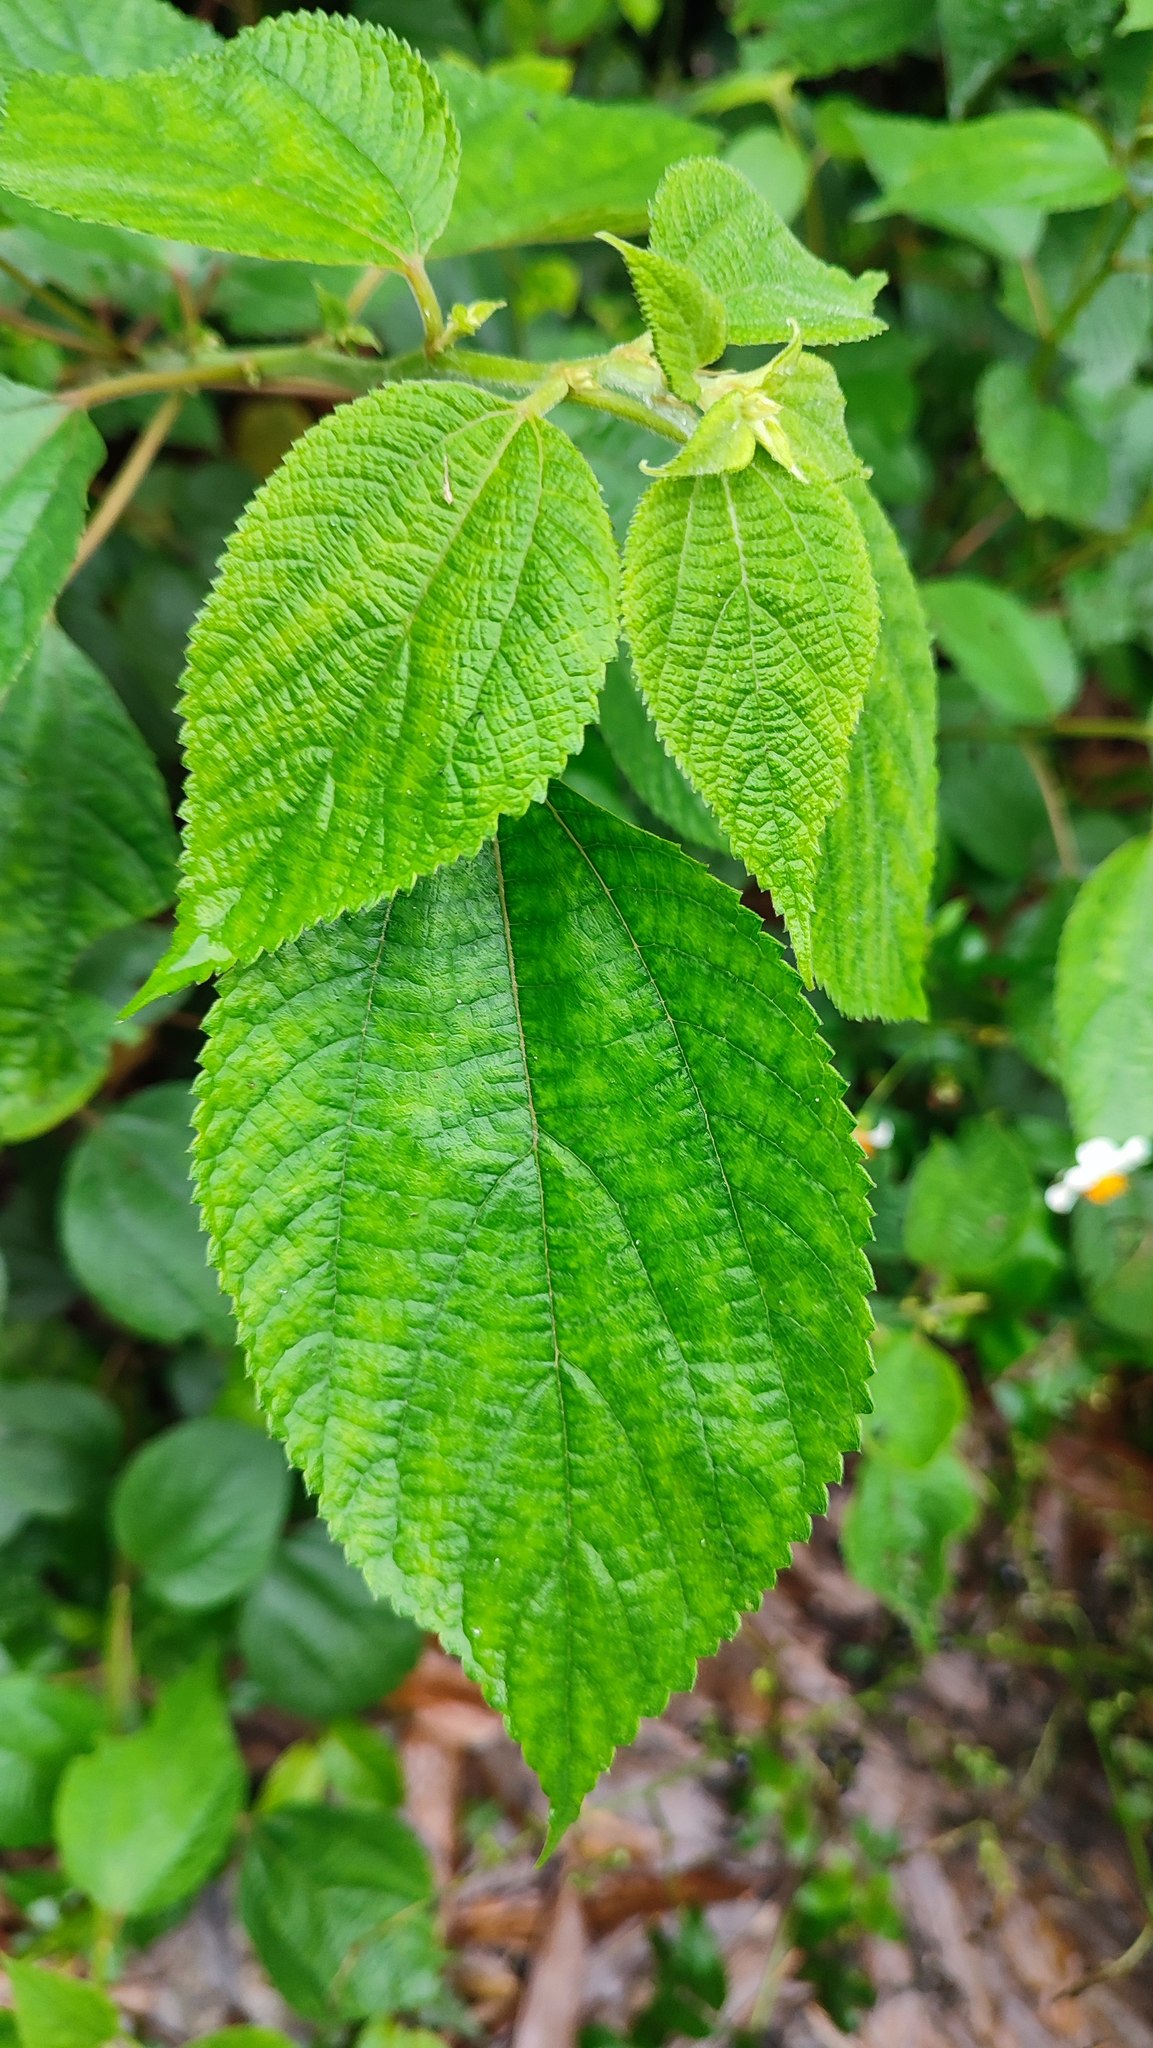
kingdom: Plantae
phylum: Tracheophyta
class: Magnoliopsida
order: Rosales
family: Urticaceae
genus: Boehmeria
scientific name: Boehmeria nivea
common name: Ramie chinese grass
